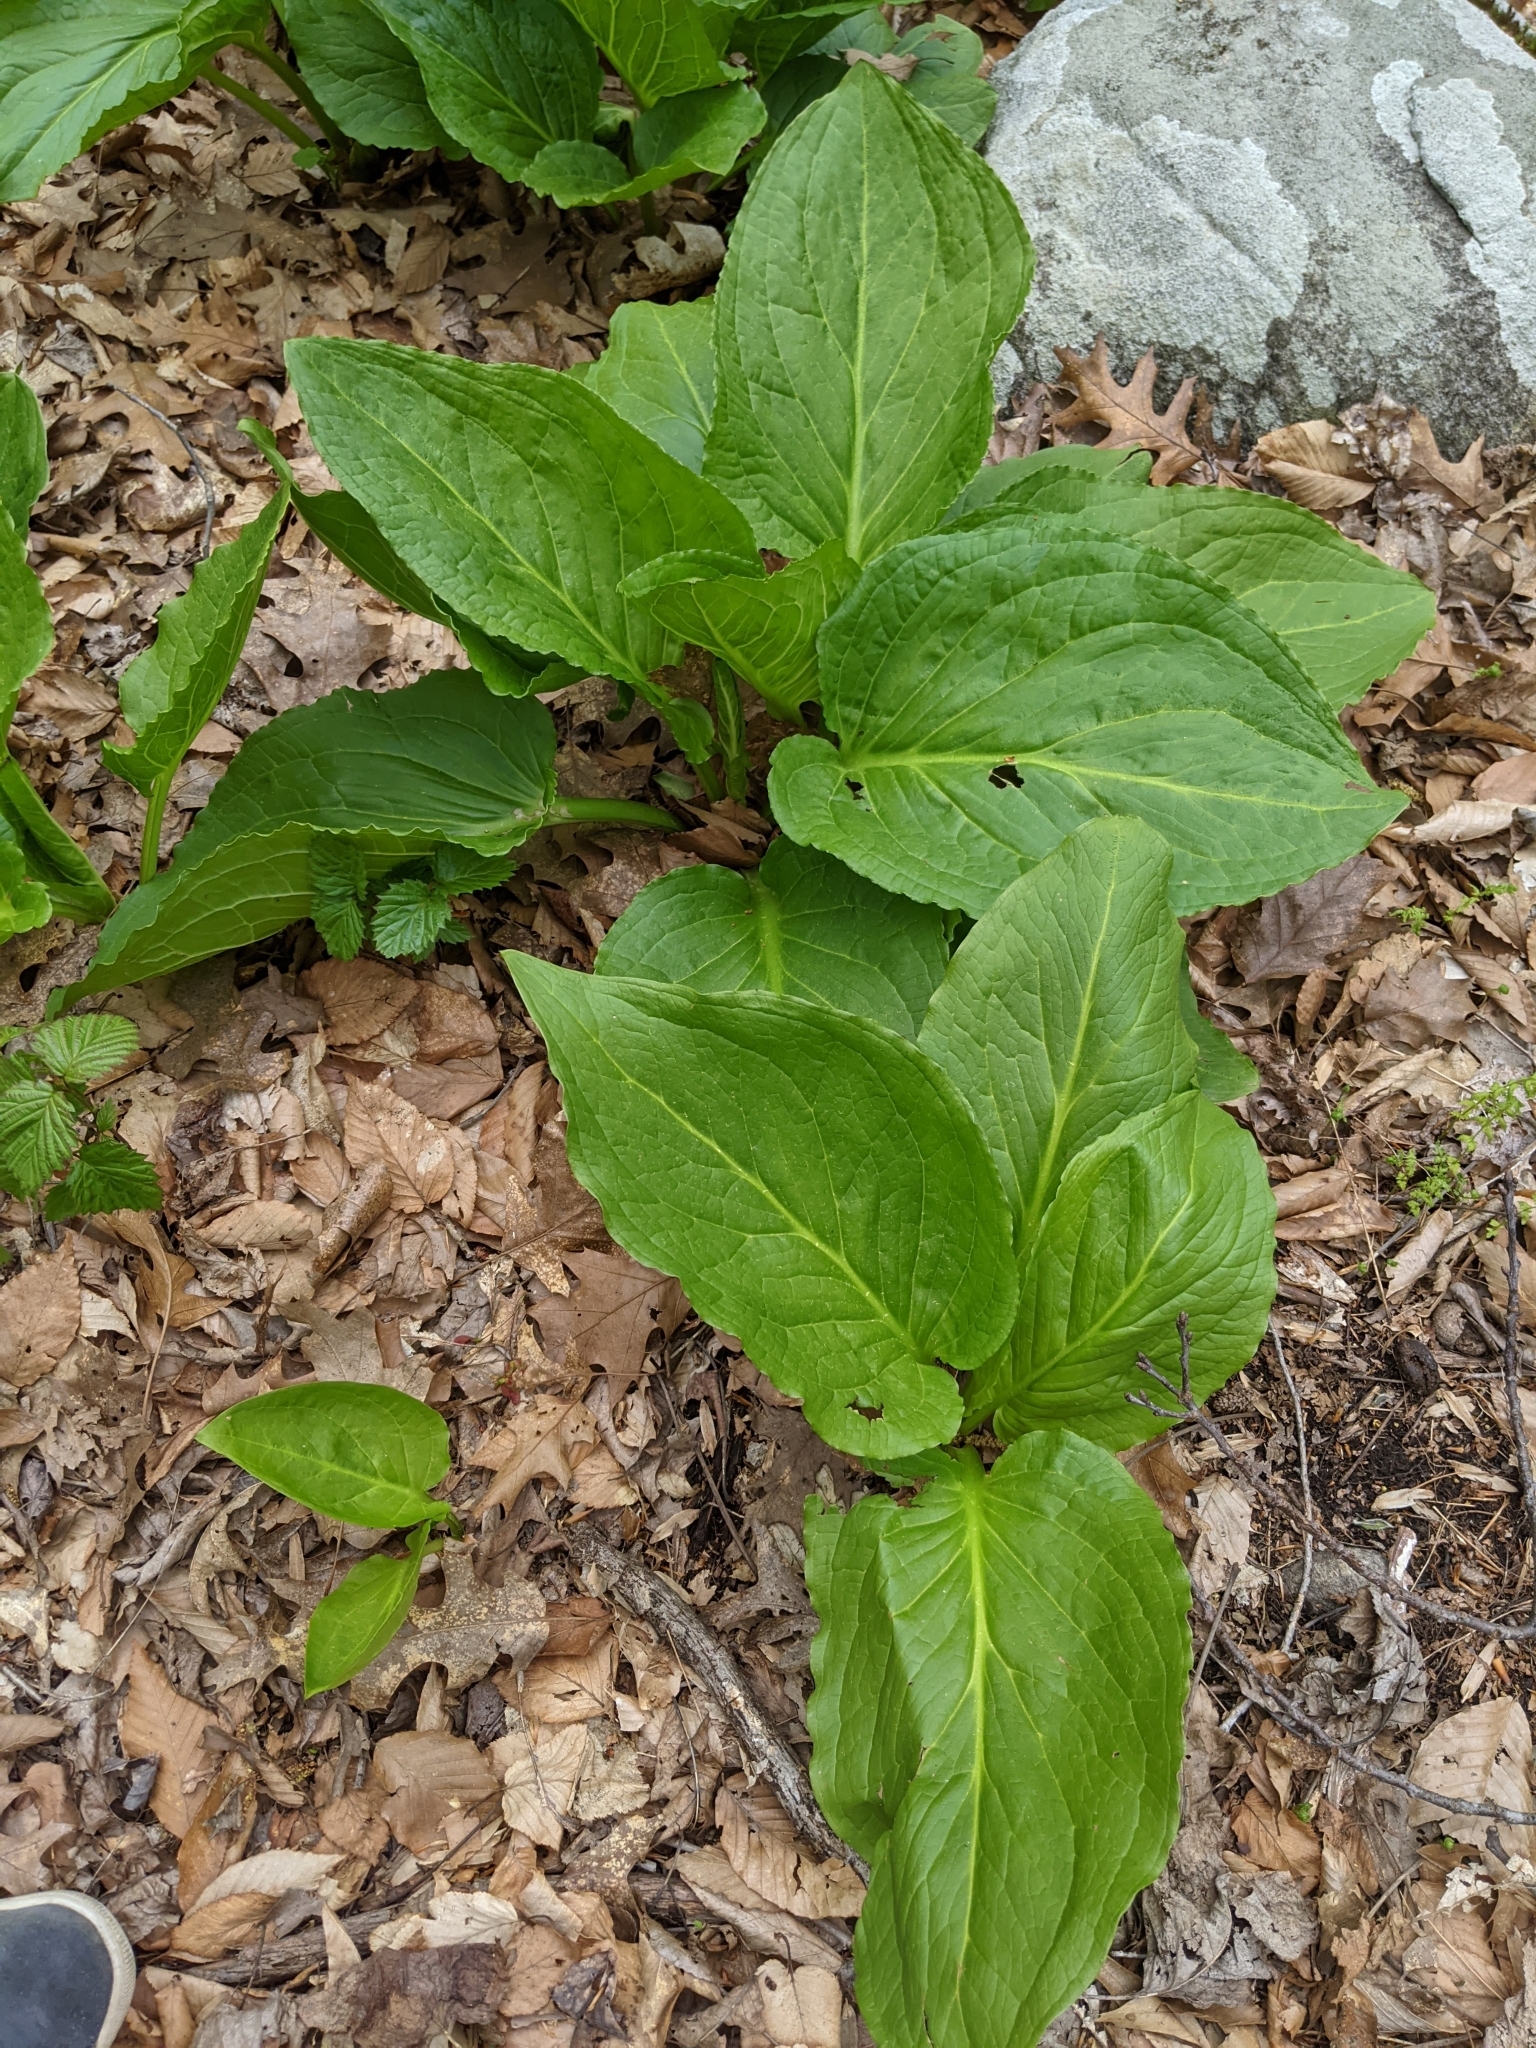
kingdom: Plantae
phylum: Tracheophyta
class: Liliopsida
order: Alismatales
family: Araceae
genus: Symplocarpus
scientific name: Symplocarpus foetidus
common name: Eastern skunk cabbage
